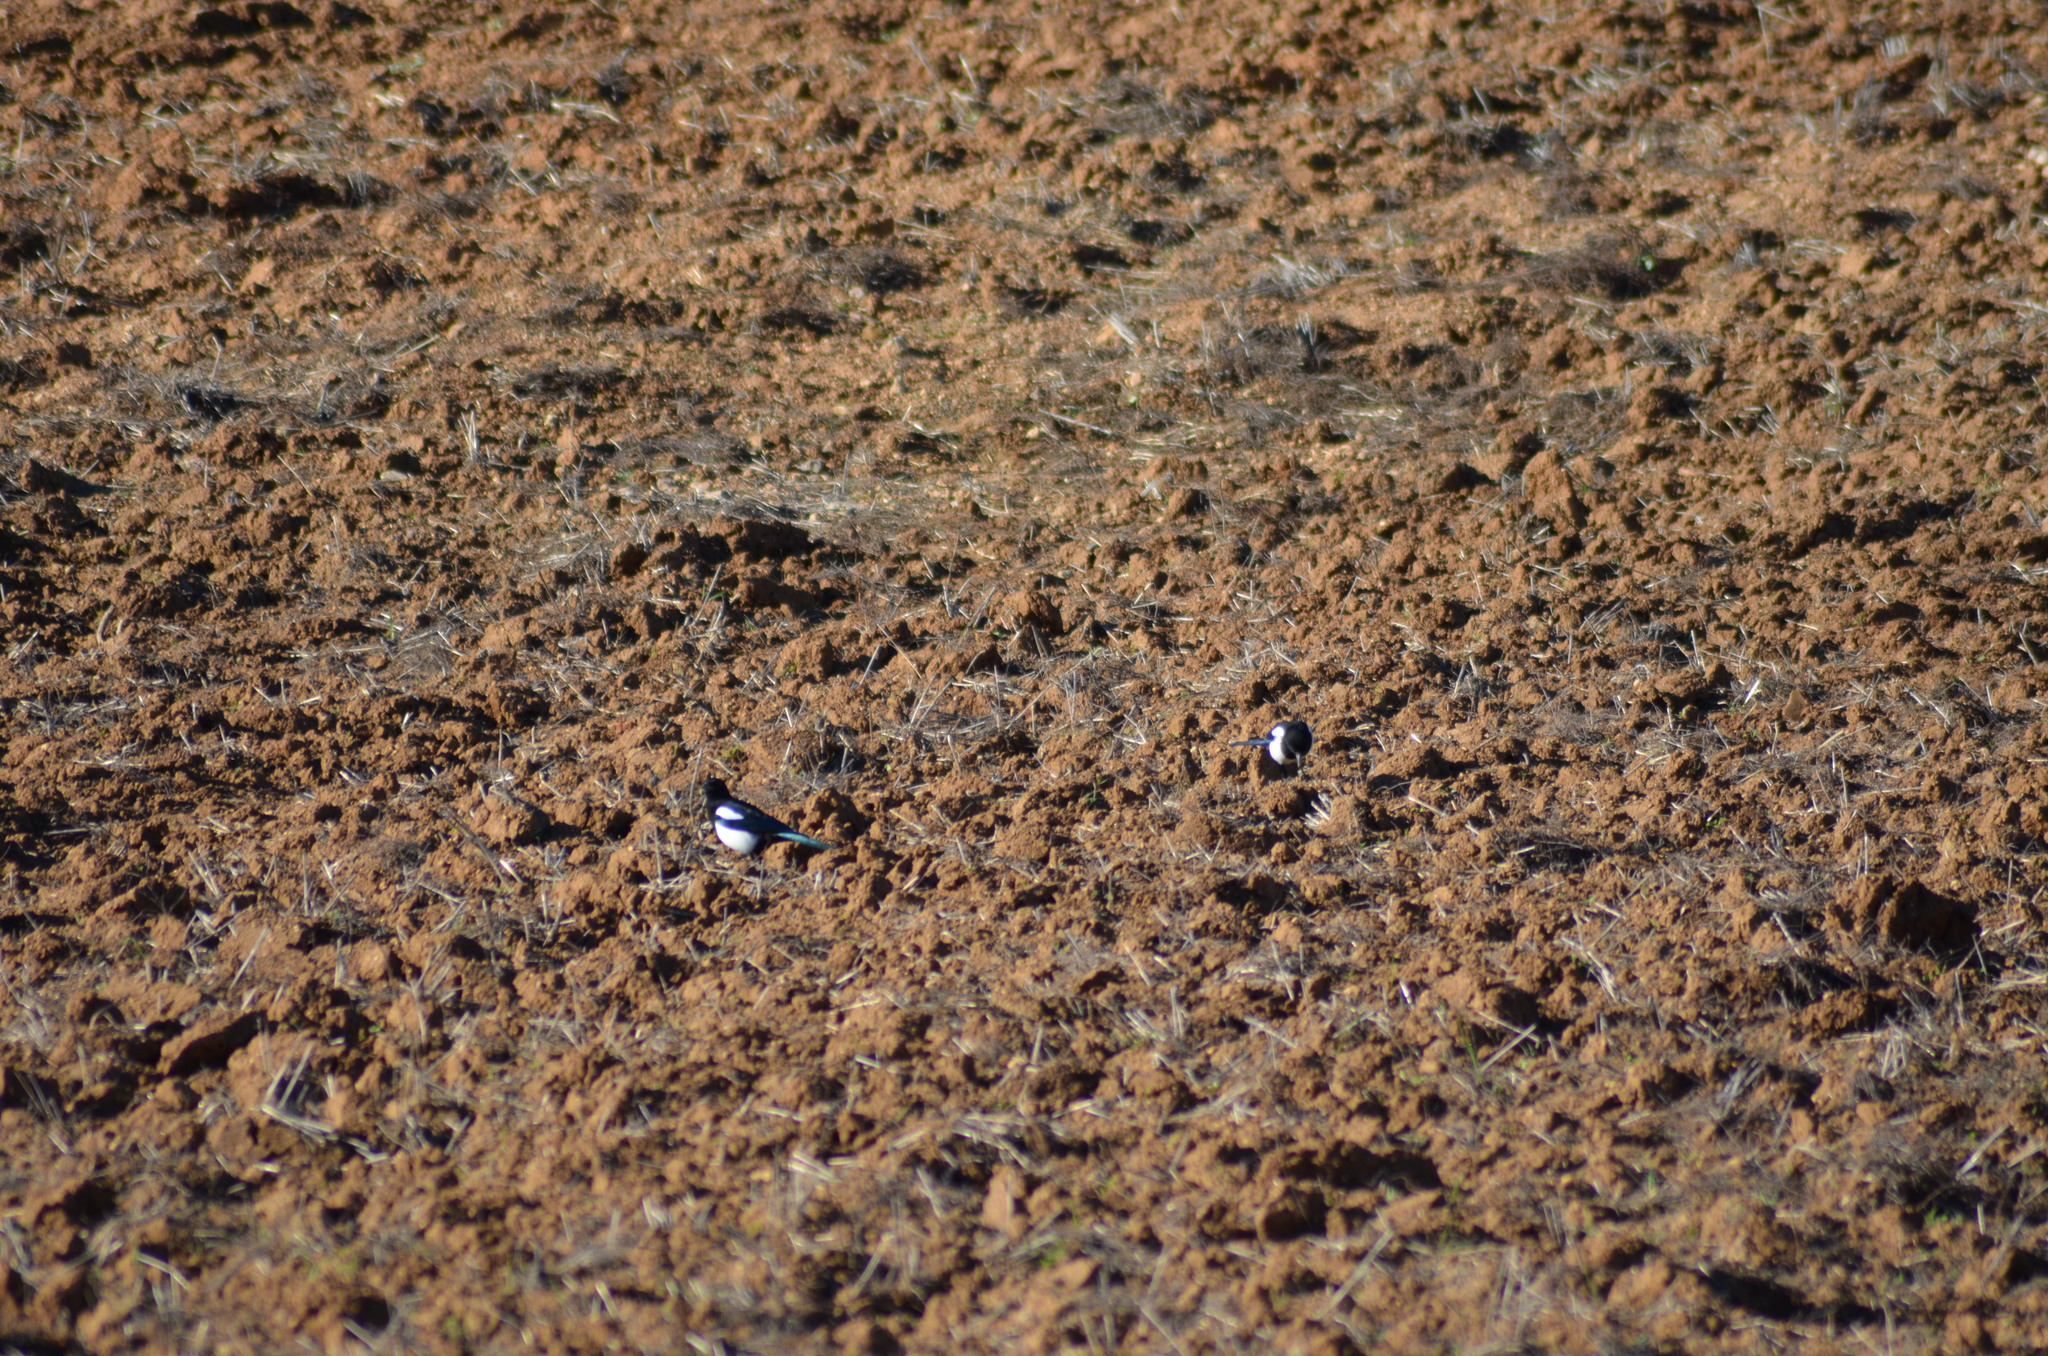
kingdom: Animalia
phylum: Chordata
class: Aves
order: Passeriformes
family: Corvidae
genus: Pica
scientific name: Pica pica
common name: Eurasian magpie
